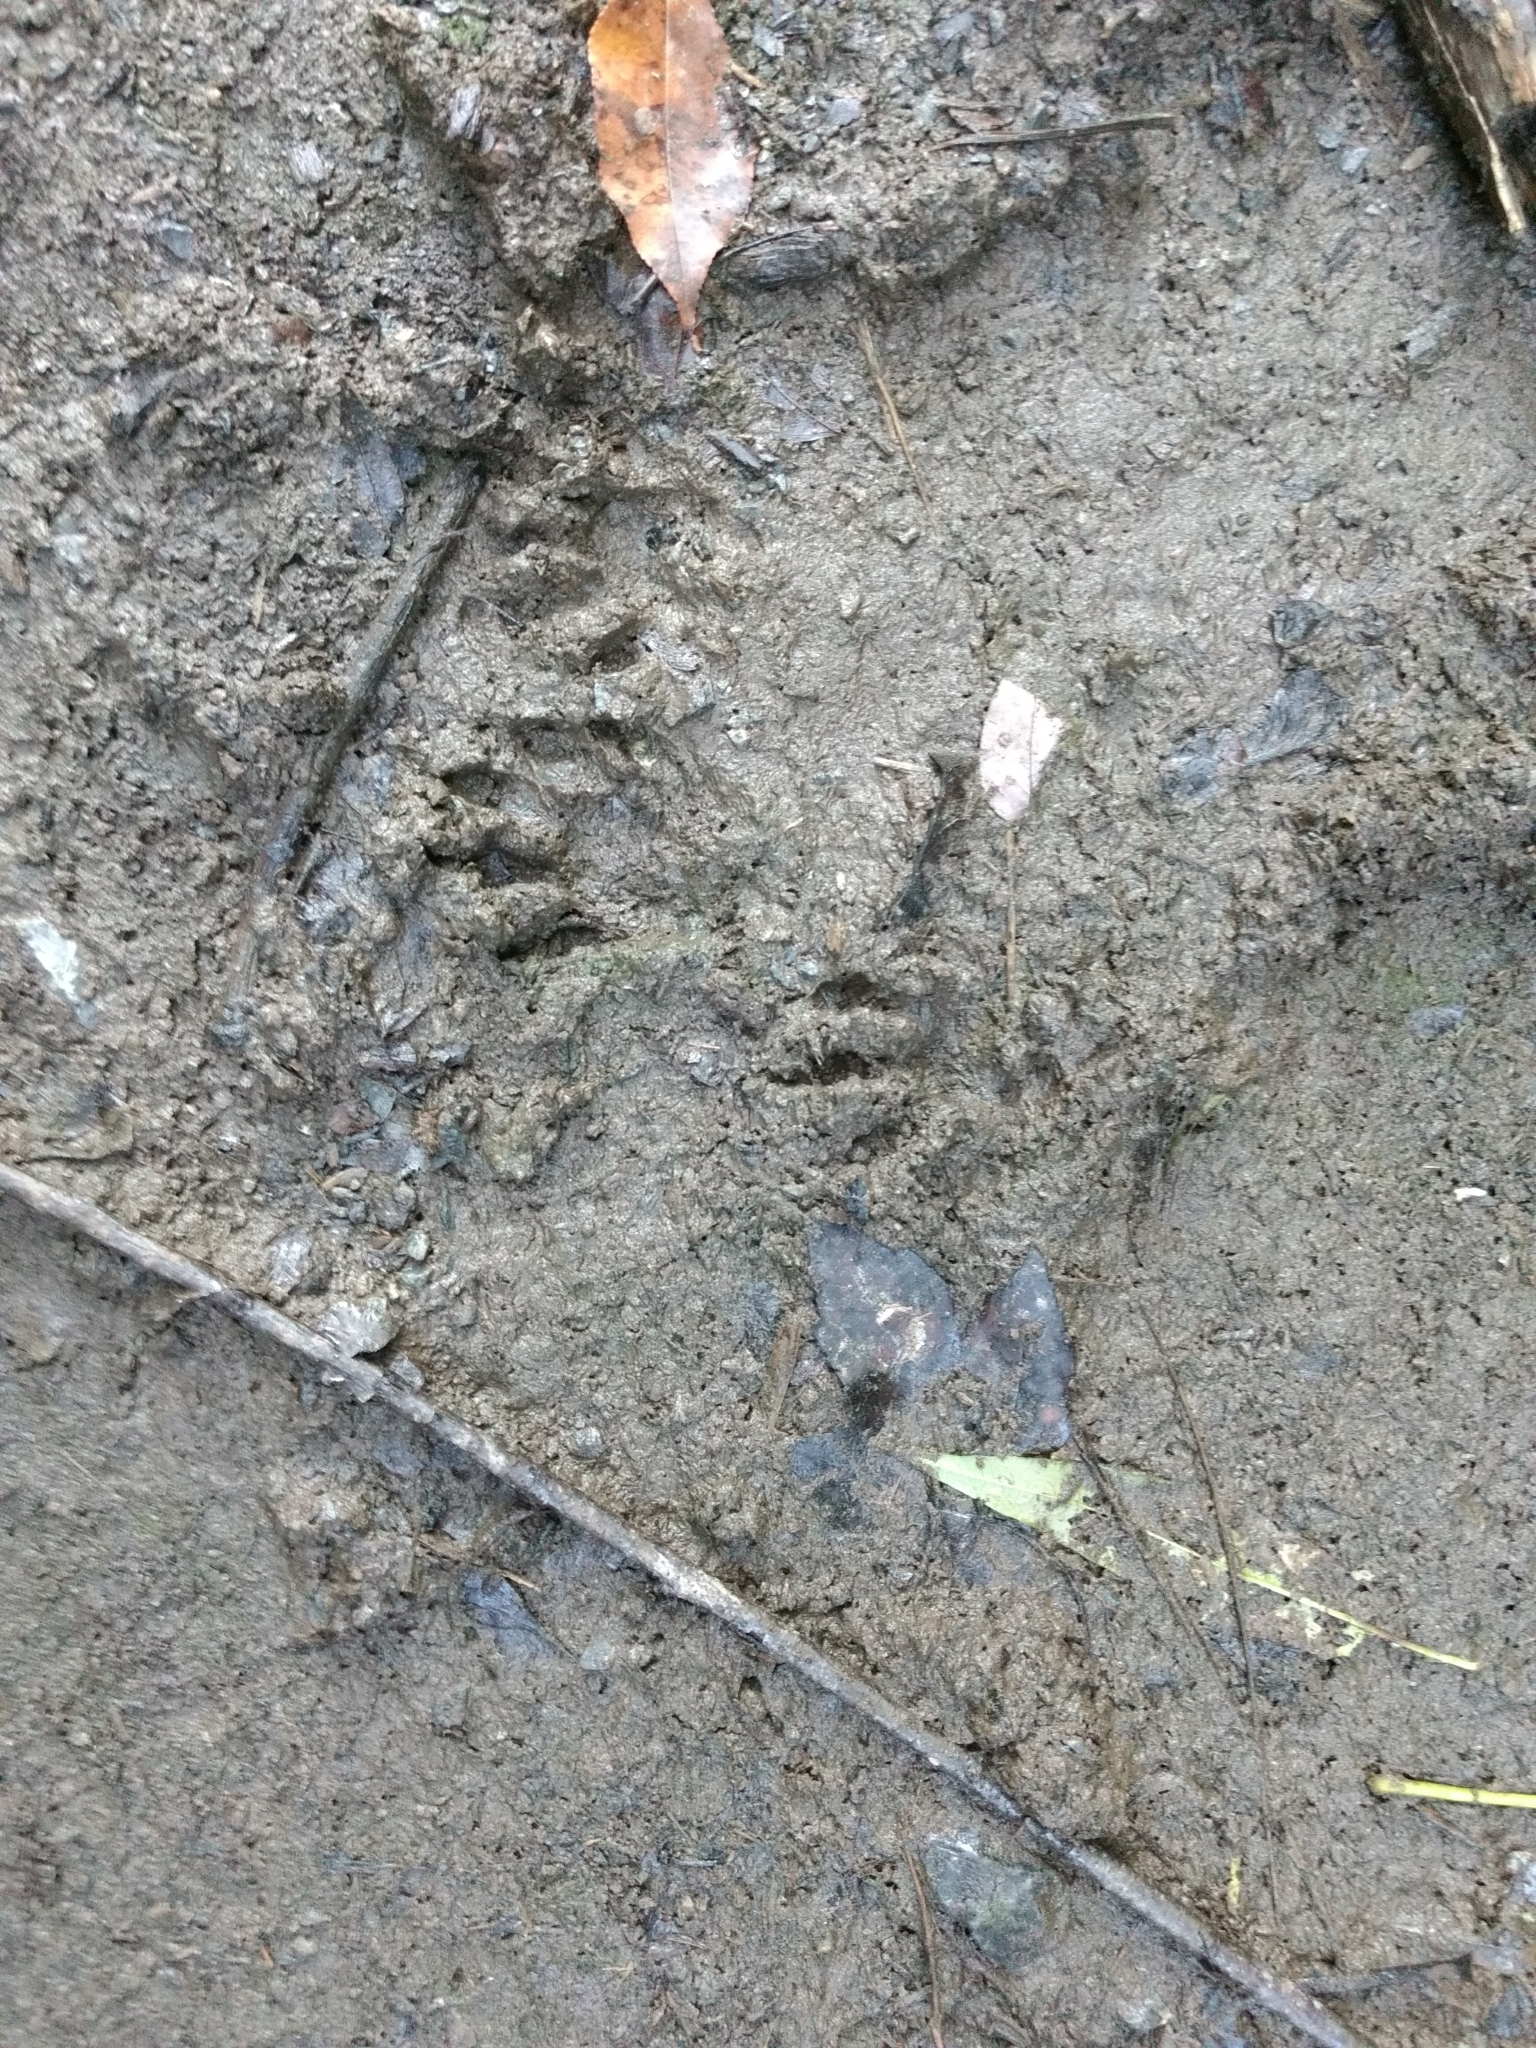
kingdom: Animalia
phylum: Chordata
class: Mammalia
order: Carnivora
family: Procyonidae
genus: Procyon
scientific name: Procyon lotor
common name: Raccoon
